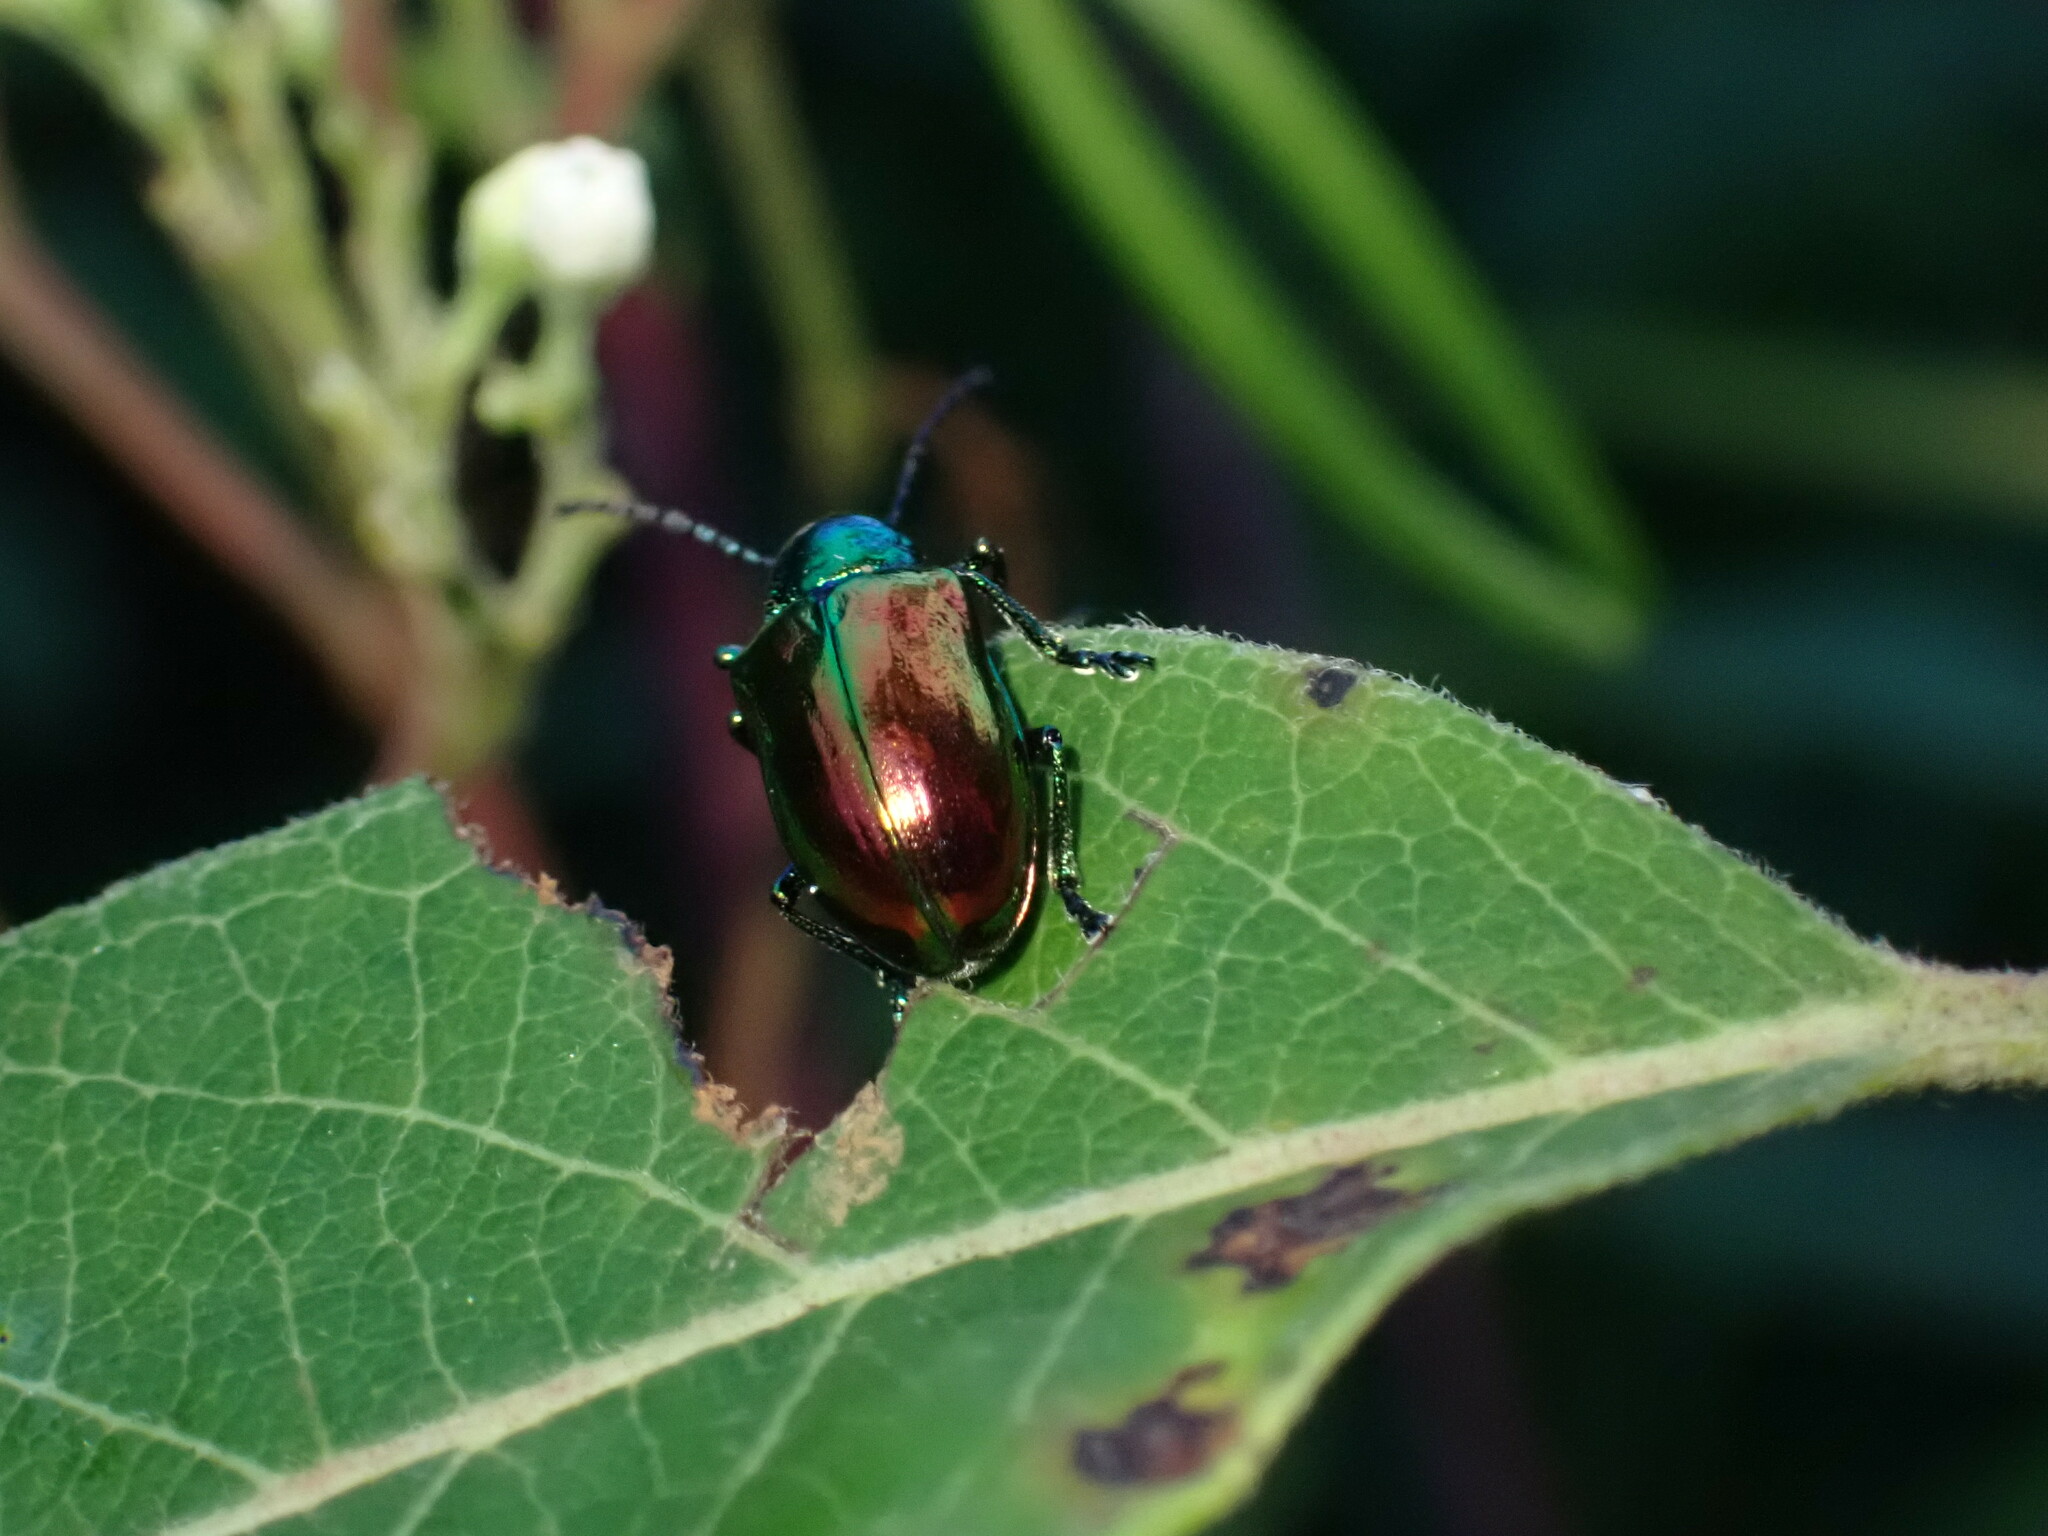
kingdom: Animalia
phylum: Arthropoda
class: Insecta
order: Coleoptera
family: Chrysomelidae
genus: Chrysochus
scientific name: Chrysochus auratus
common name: Dogbane leaf beetle
